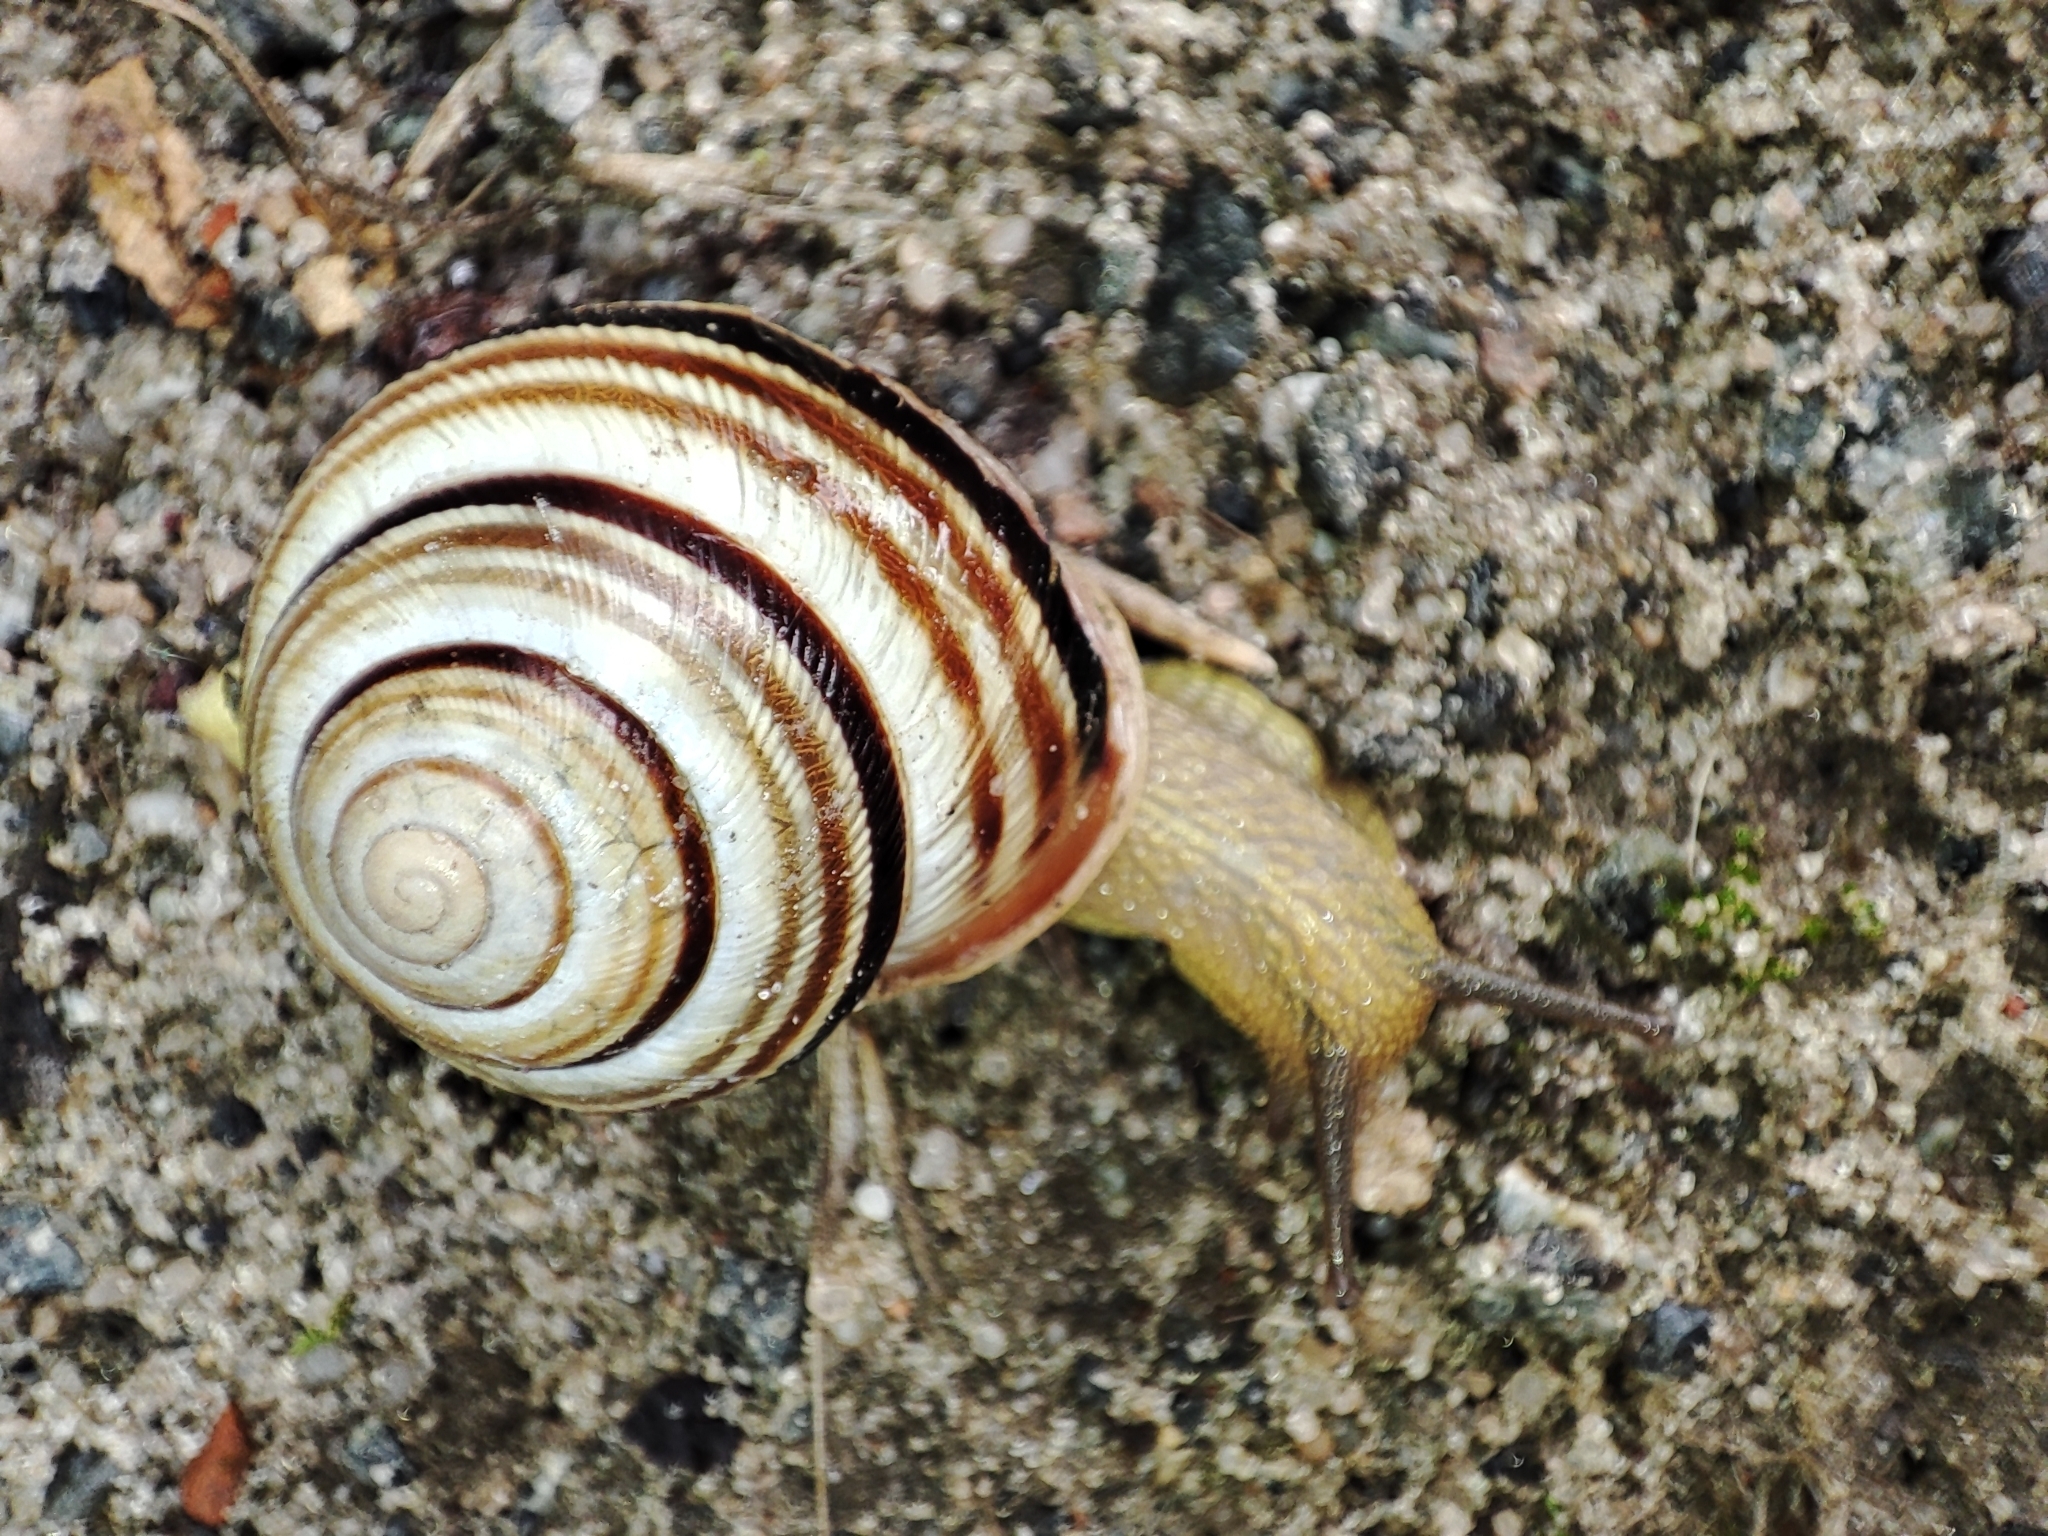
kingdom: Animalia
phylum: Mollusca
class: Gastropoda
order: Stylommatophora
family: Helicidae
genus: Caucasotachea
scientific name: Caucasotachea vindobonensis
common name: European helicid land snail
